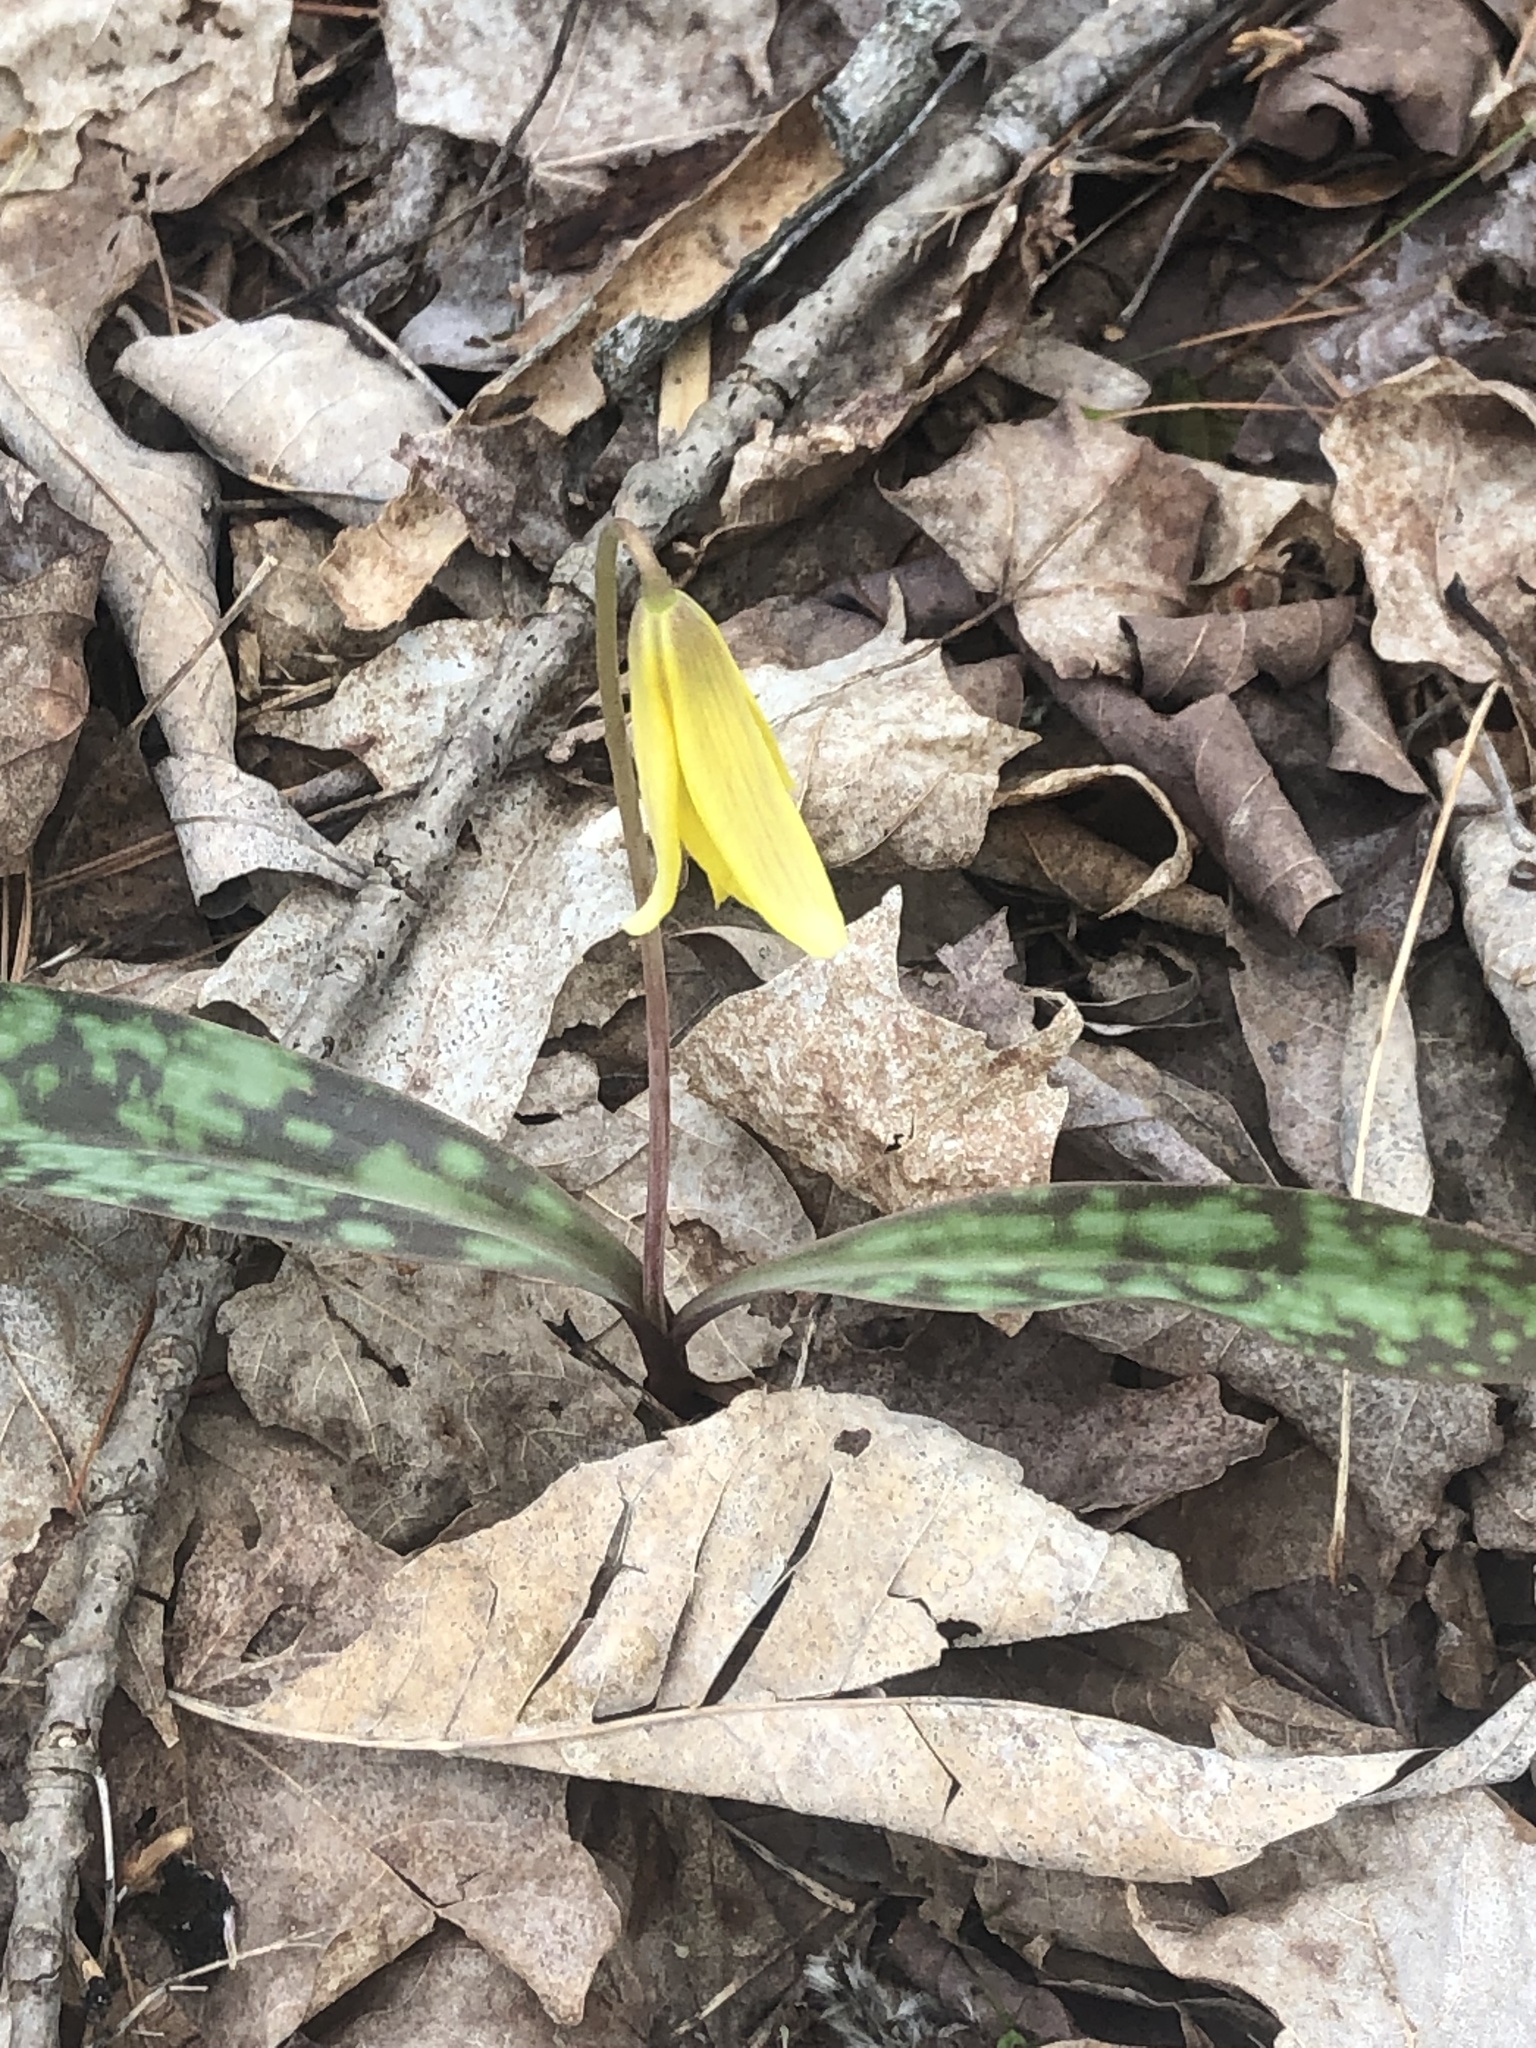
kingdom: Plantae
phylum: Tracheophyta
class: Liliopsida
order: Liliales
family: Liliaceae
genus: Erythronium
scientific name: Erythronium americanum
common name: Yellow adder's-tongue
